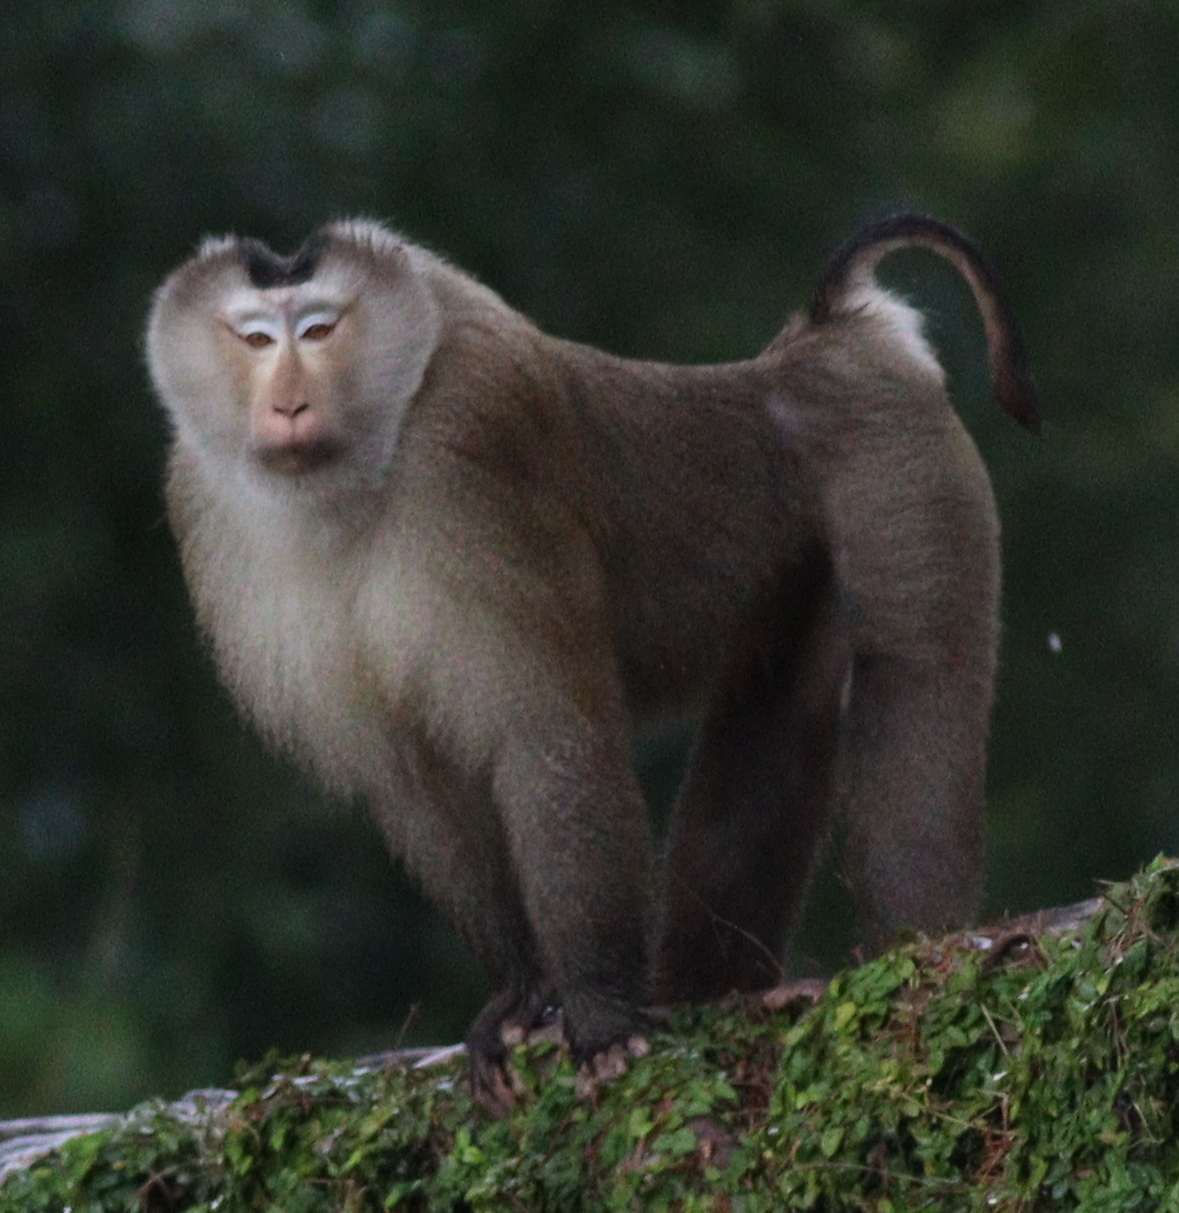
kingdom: Animalia
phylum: Chordata
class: Mammalia
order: Primates
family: Cercopithecidae
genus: Macaca
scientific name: Macaca leonina
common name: Northern pig-tailed macaque
